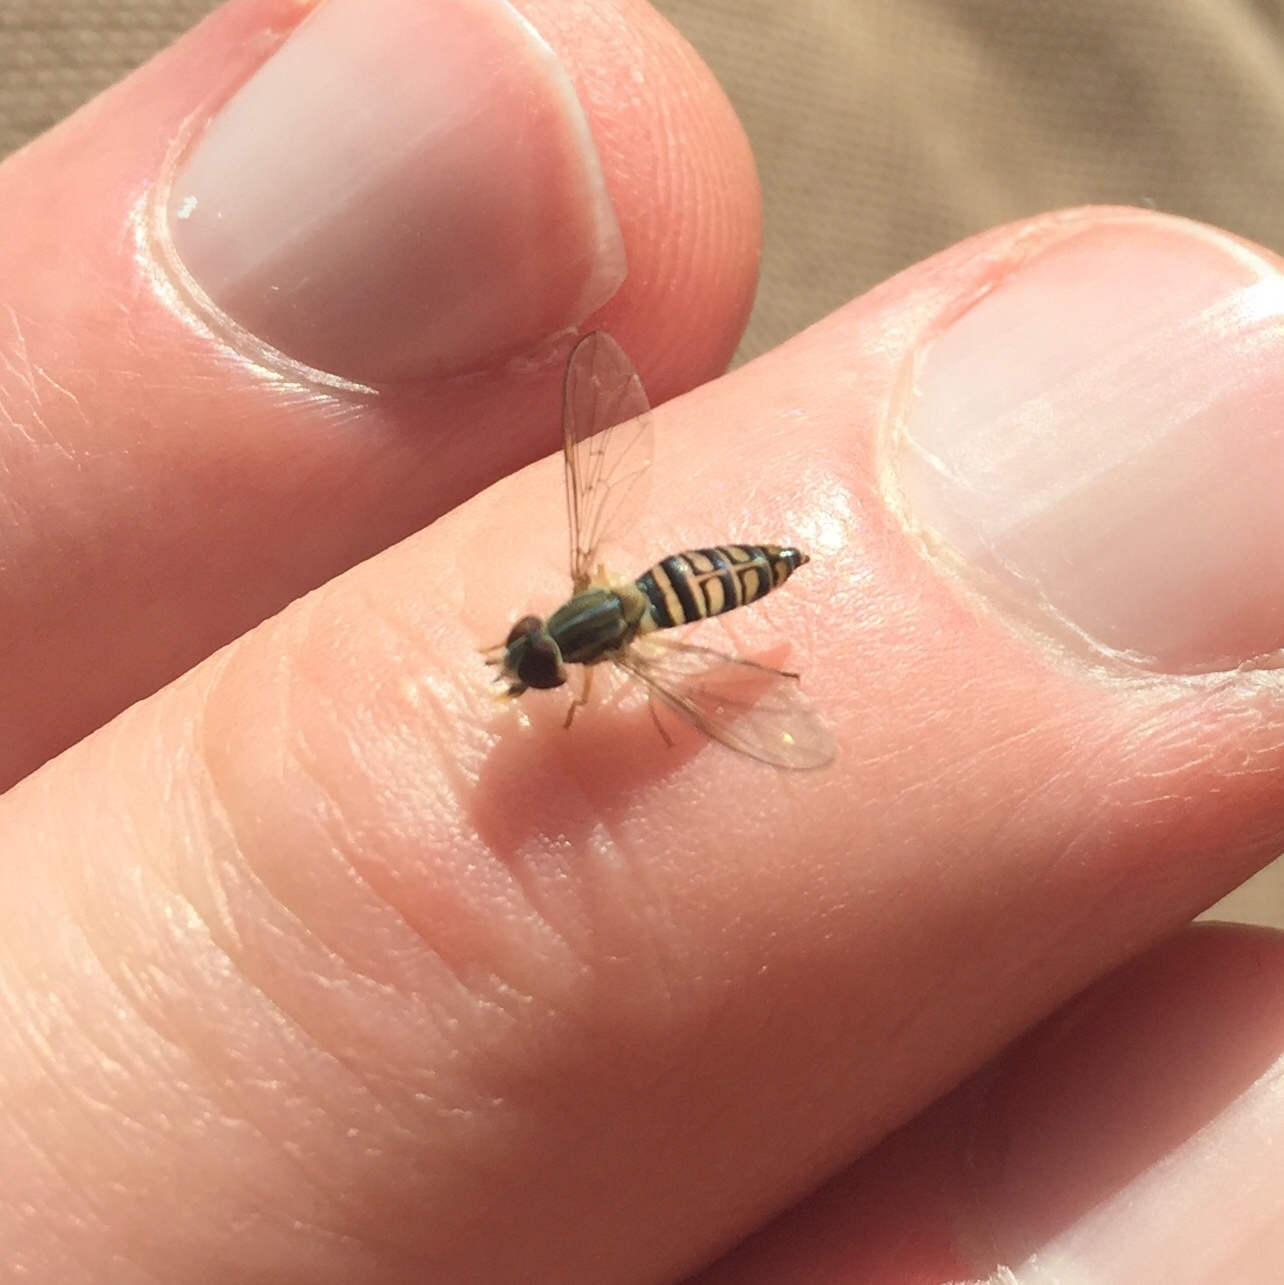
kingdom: Animalia
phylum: Arthropoda
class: Insecta
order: Diptera
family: Syrphidae
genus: Toxomerus
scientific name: Toxomerus politus
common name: Maize calligrapher
